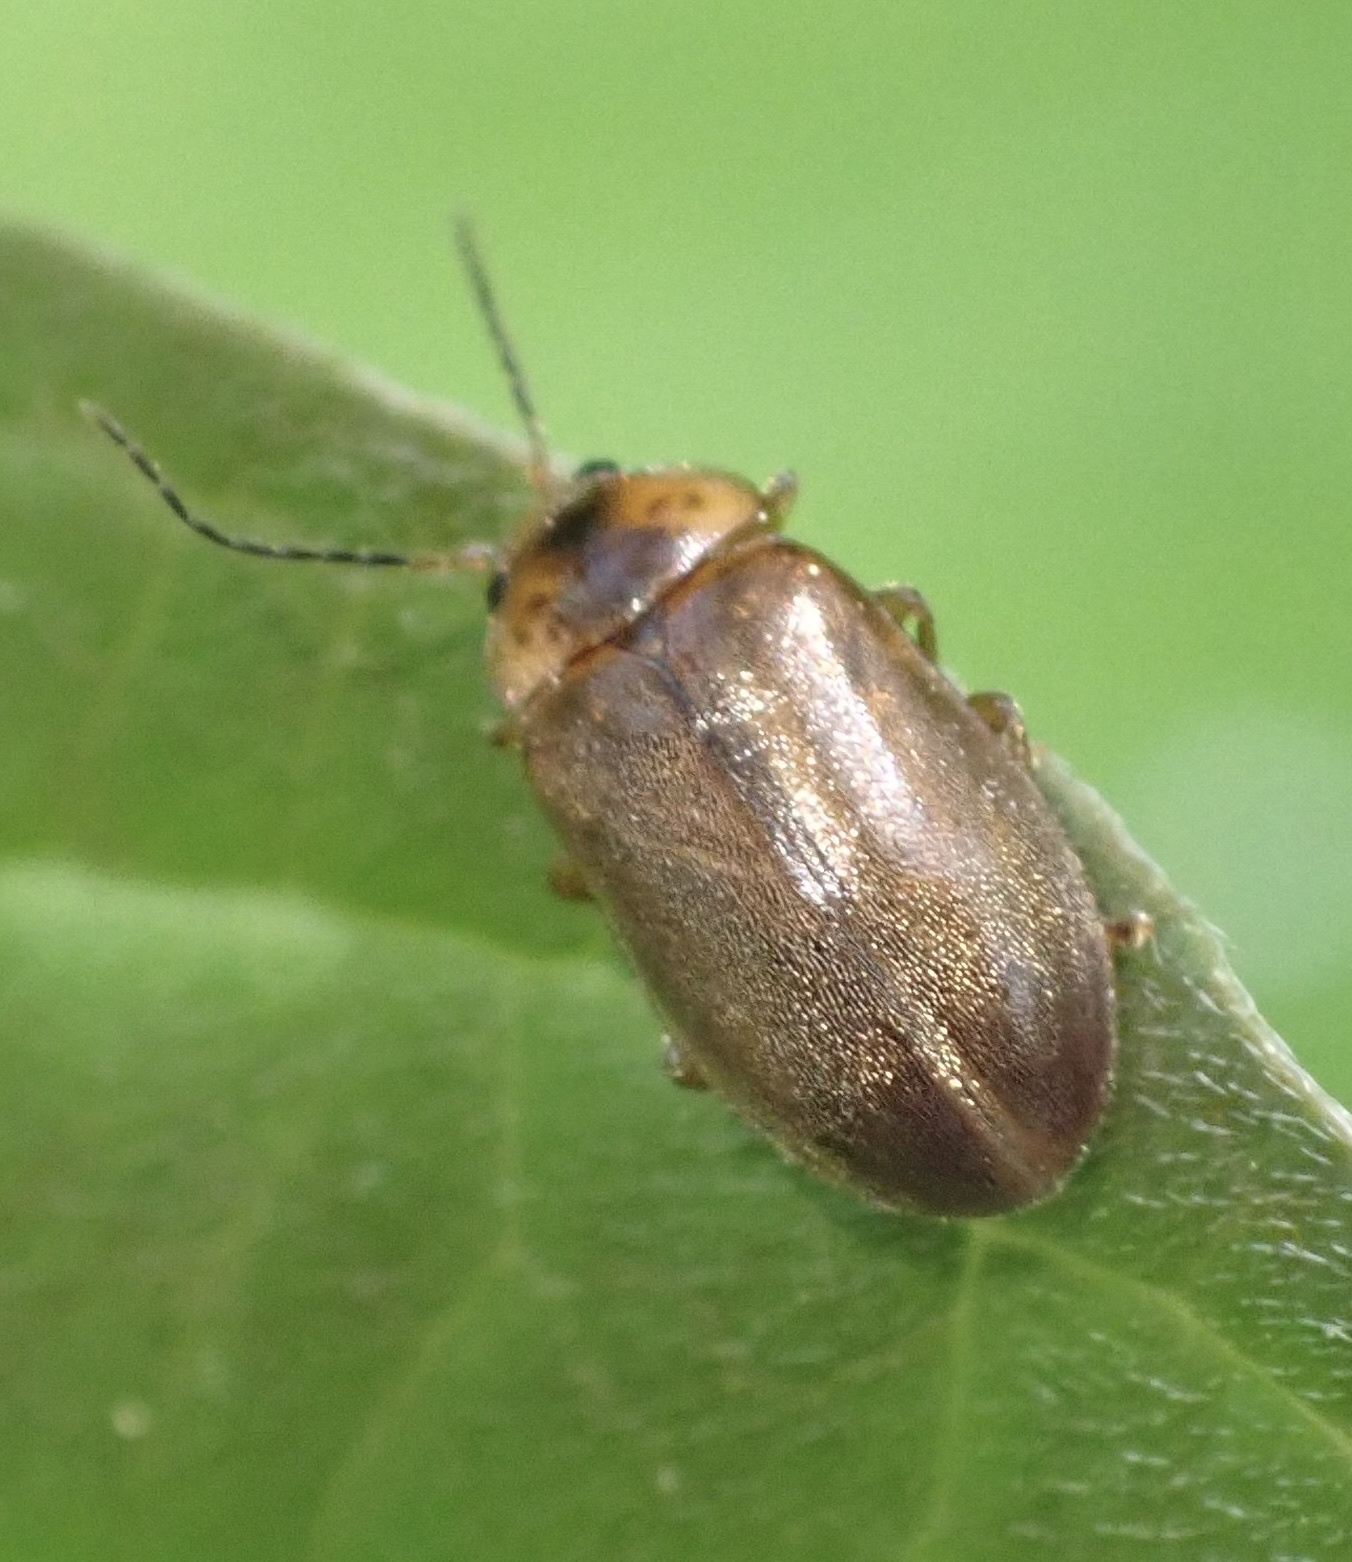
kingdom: Animalia
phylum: Arthropoda
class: Insecta
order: Coleoptera
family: Scirtidae
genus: Microcara
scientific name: Microcara testacea
